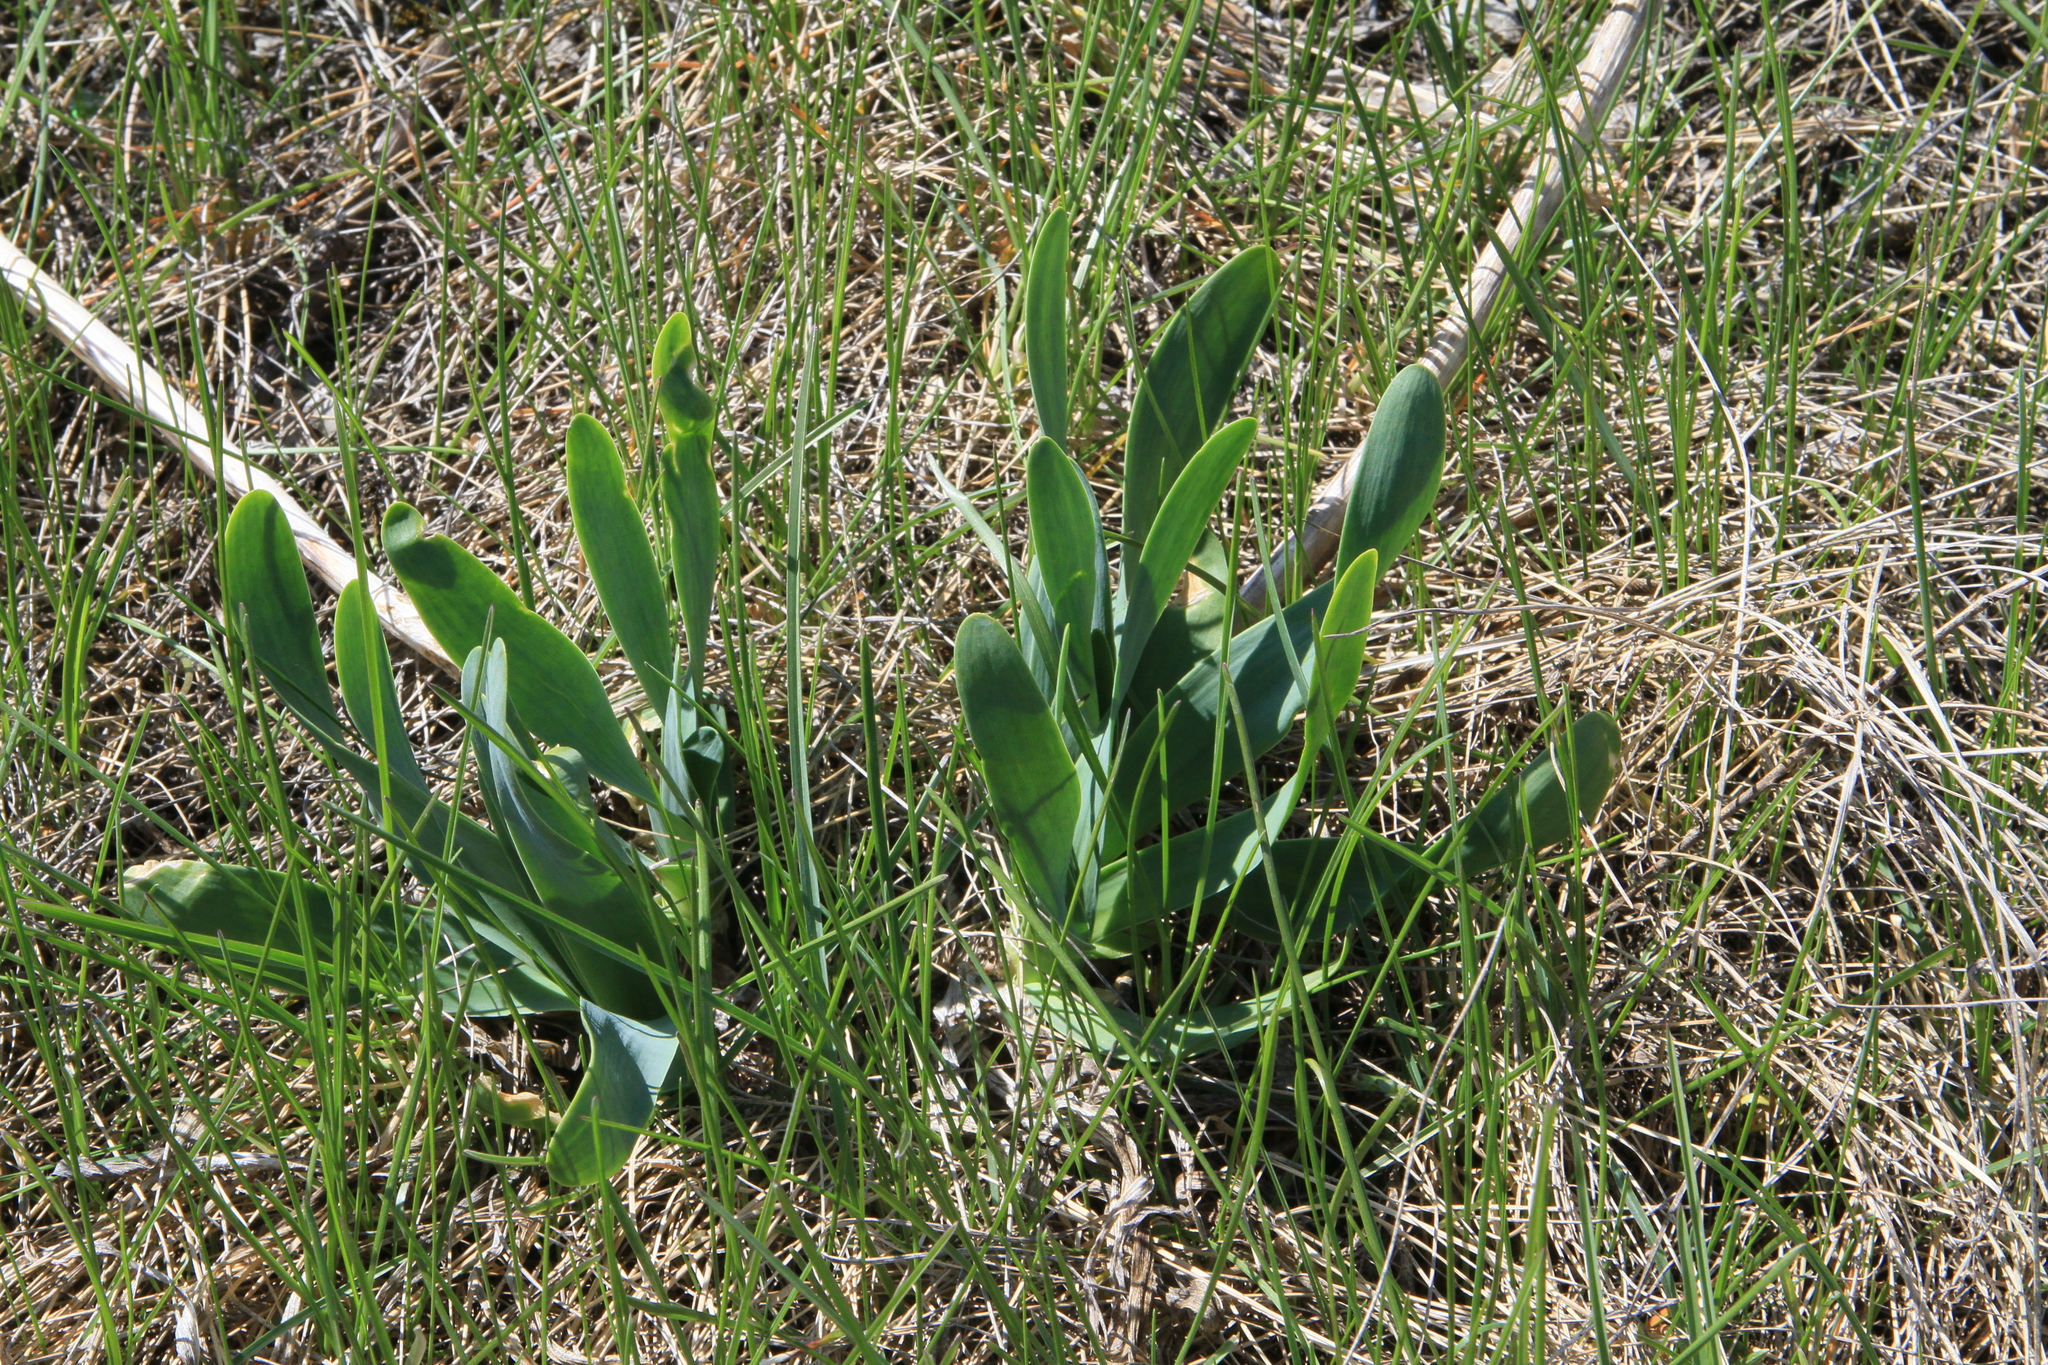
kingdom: Plantae
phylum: Tracheophyta
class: Liliopsida
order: Asparagales
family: Amaryllidaceae
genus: Allium
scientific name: Allium nutans
